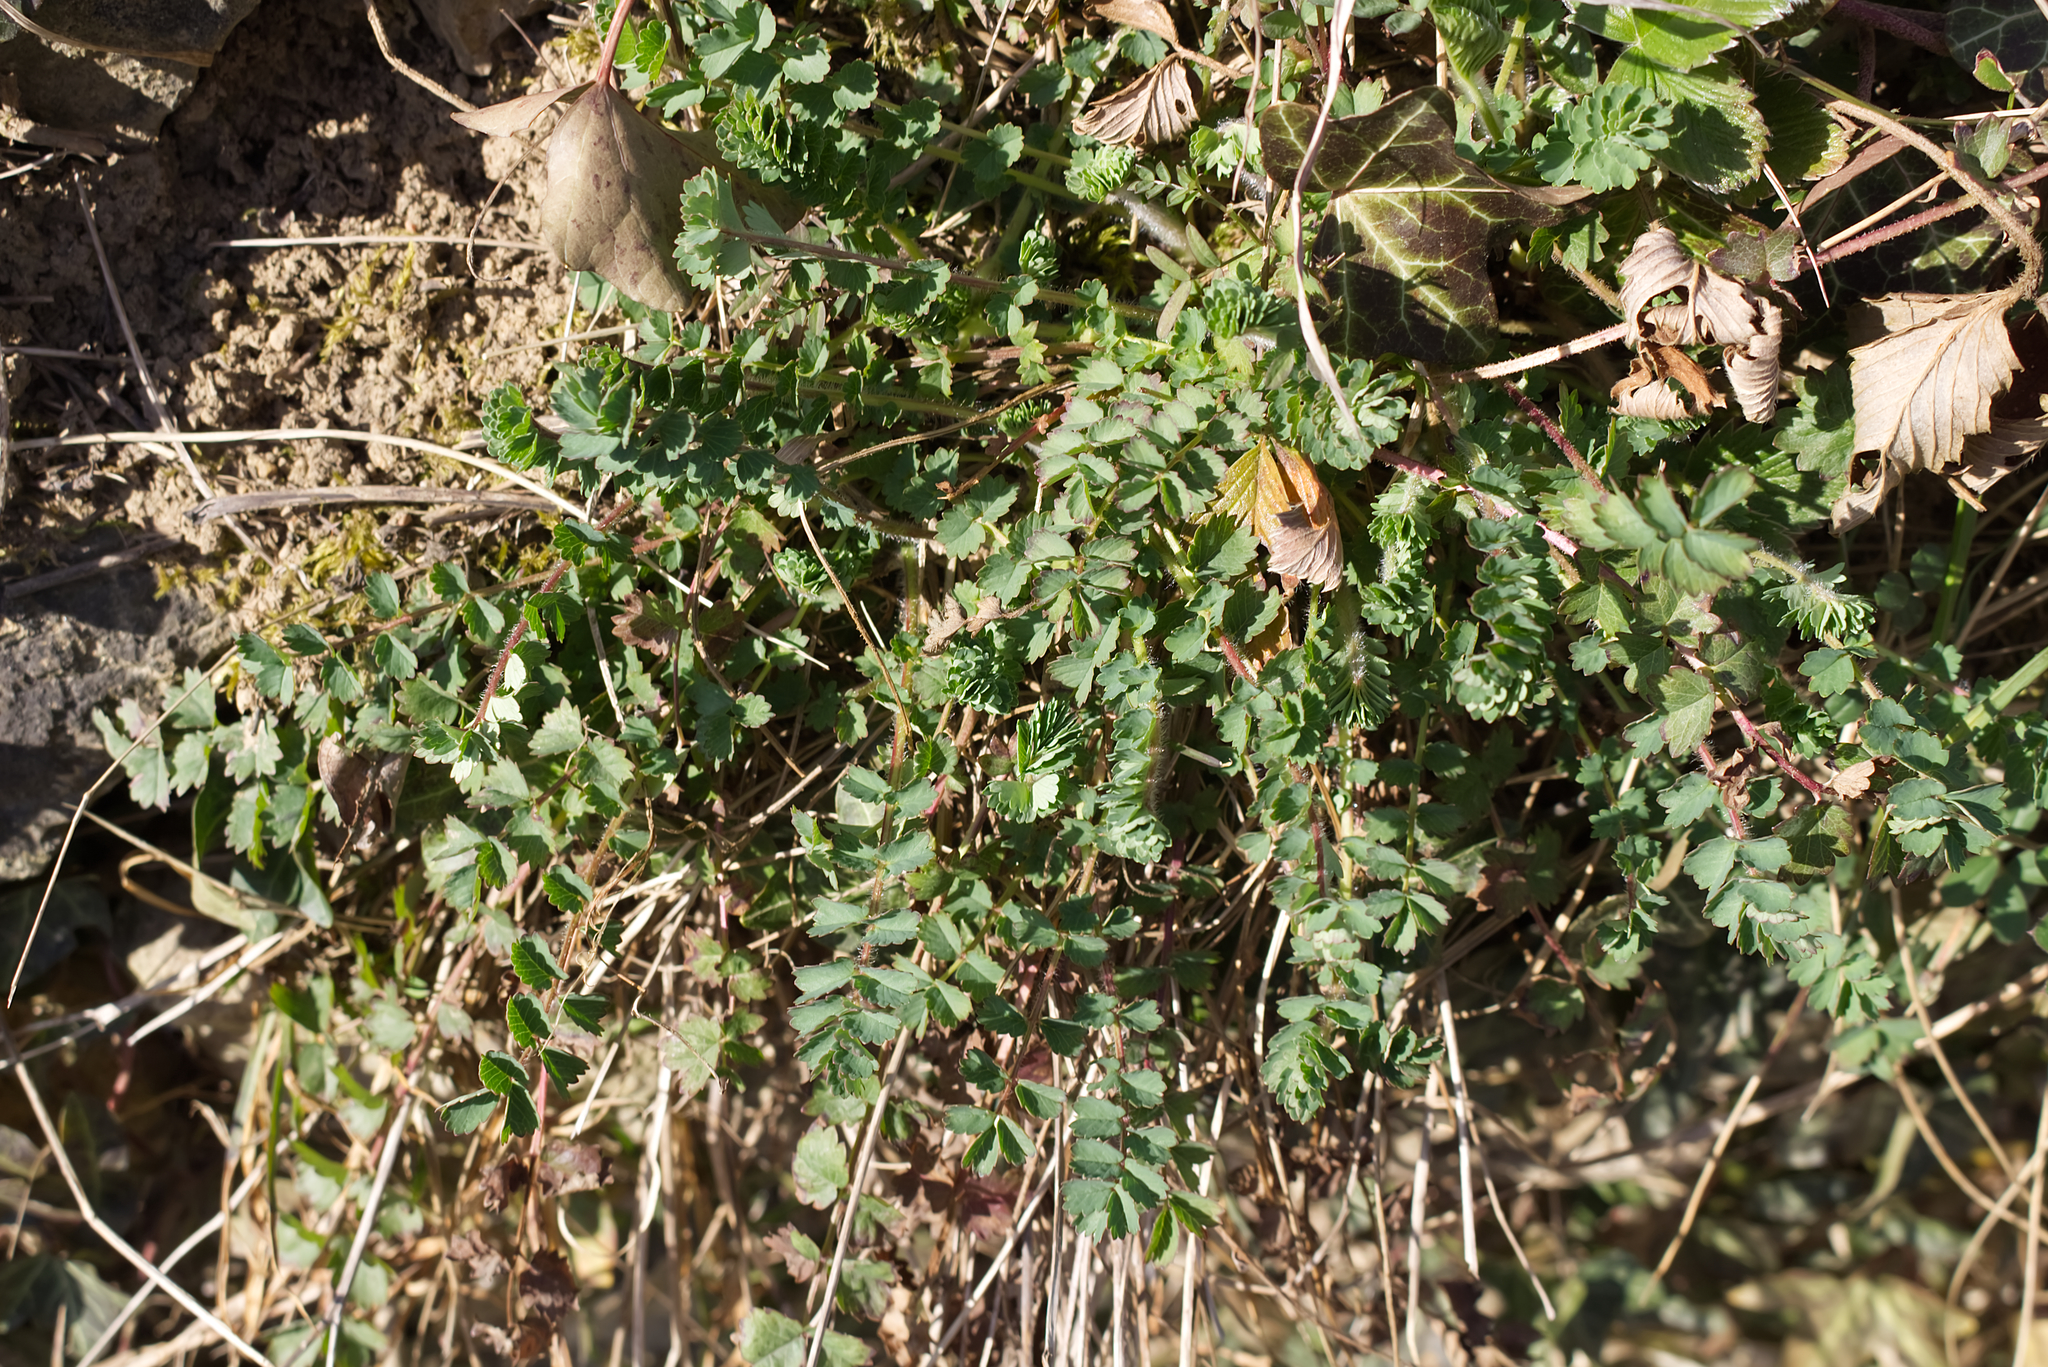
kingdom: Plantae
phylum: Tracheophyta
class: Magnoliopsida
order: Rosales
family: Rosaceae
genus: Poterium
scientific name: Poterium sanguisorba
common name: Salad burnet
